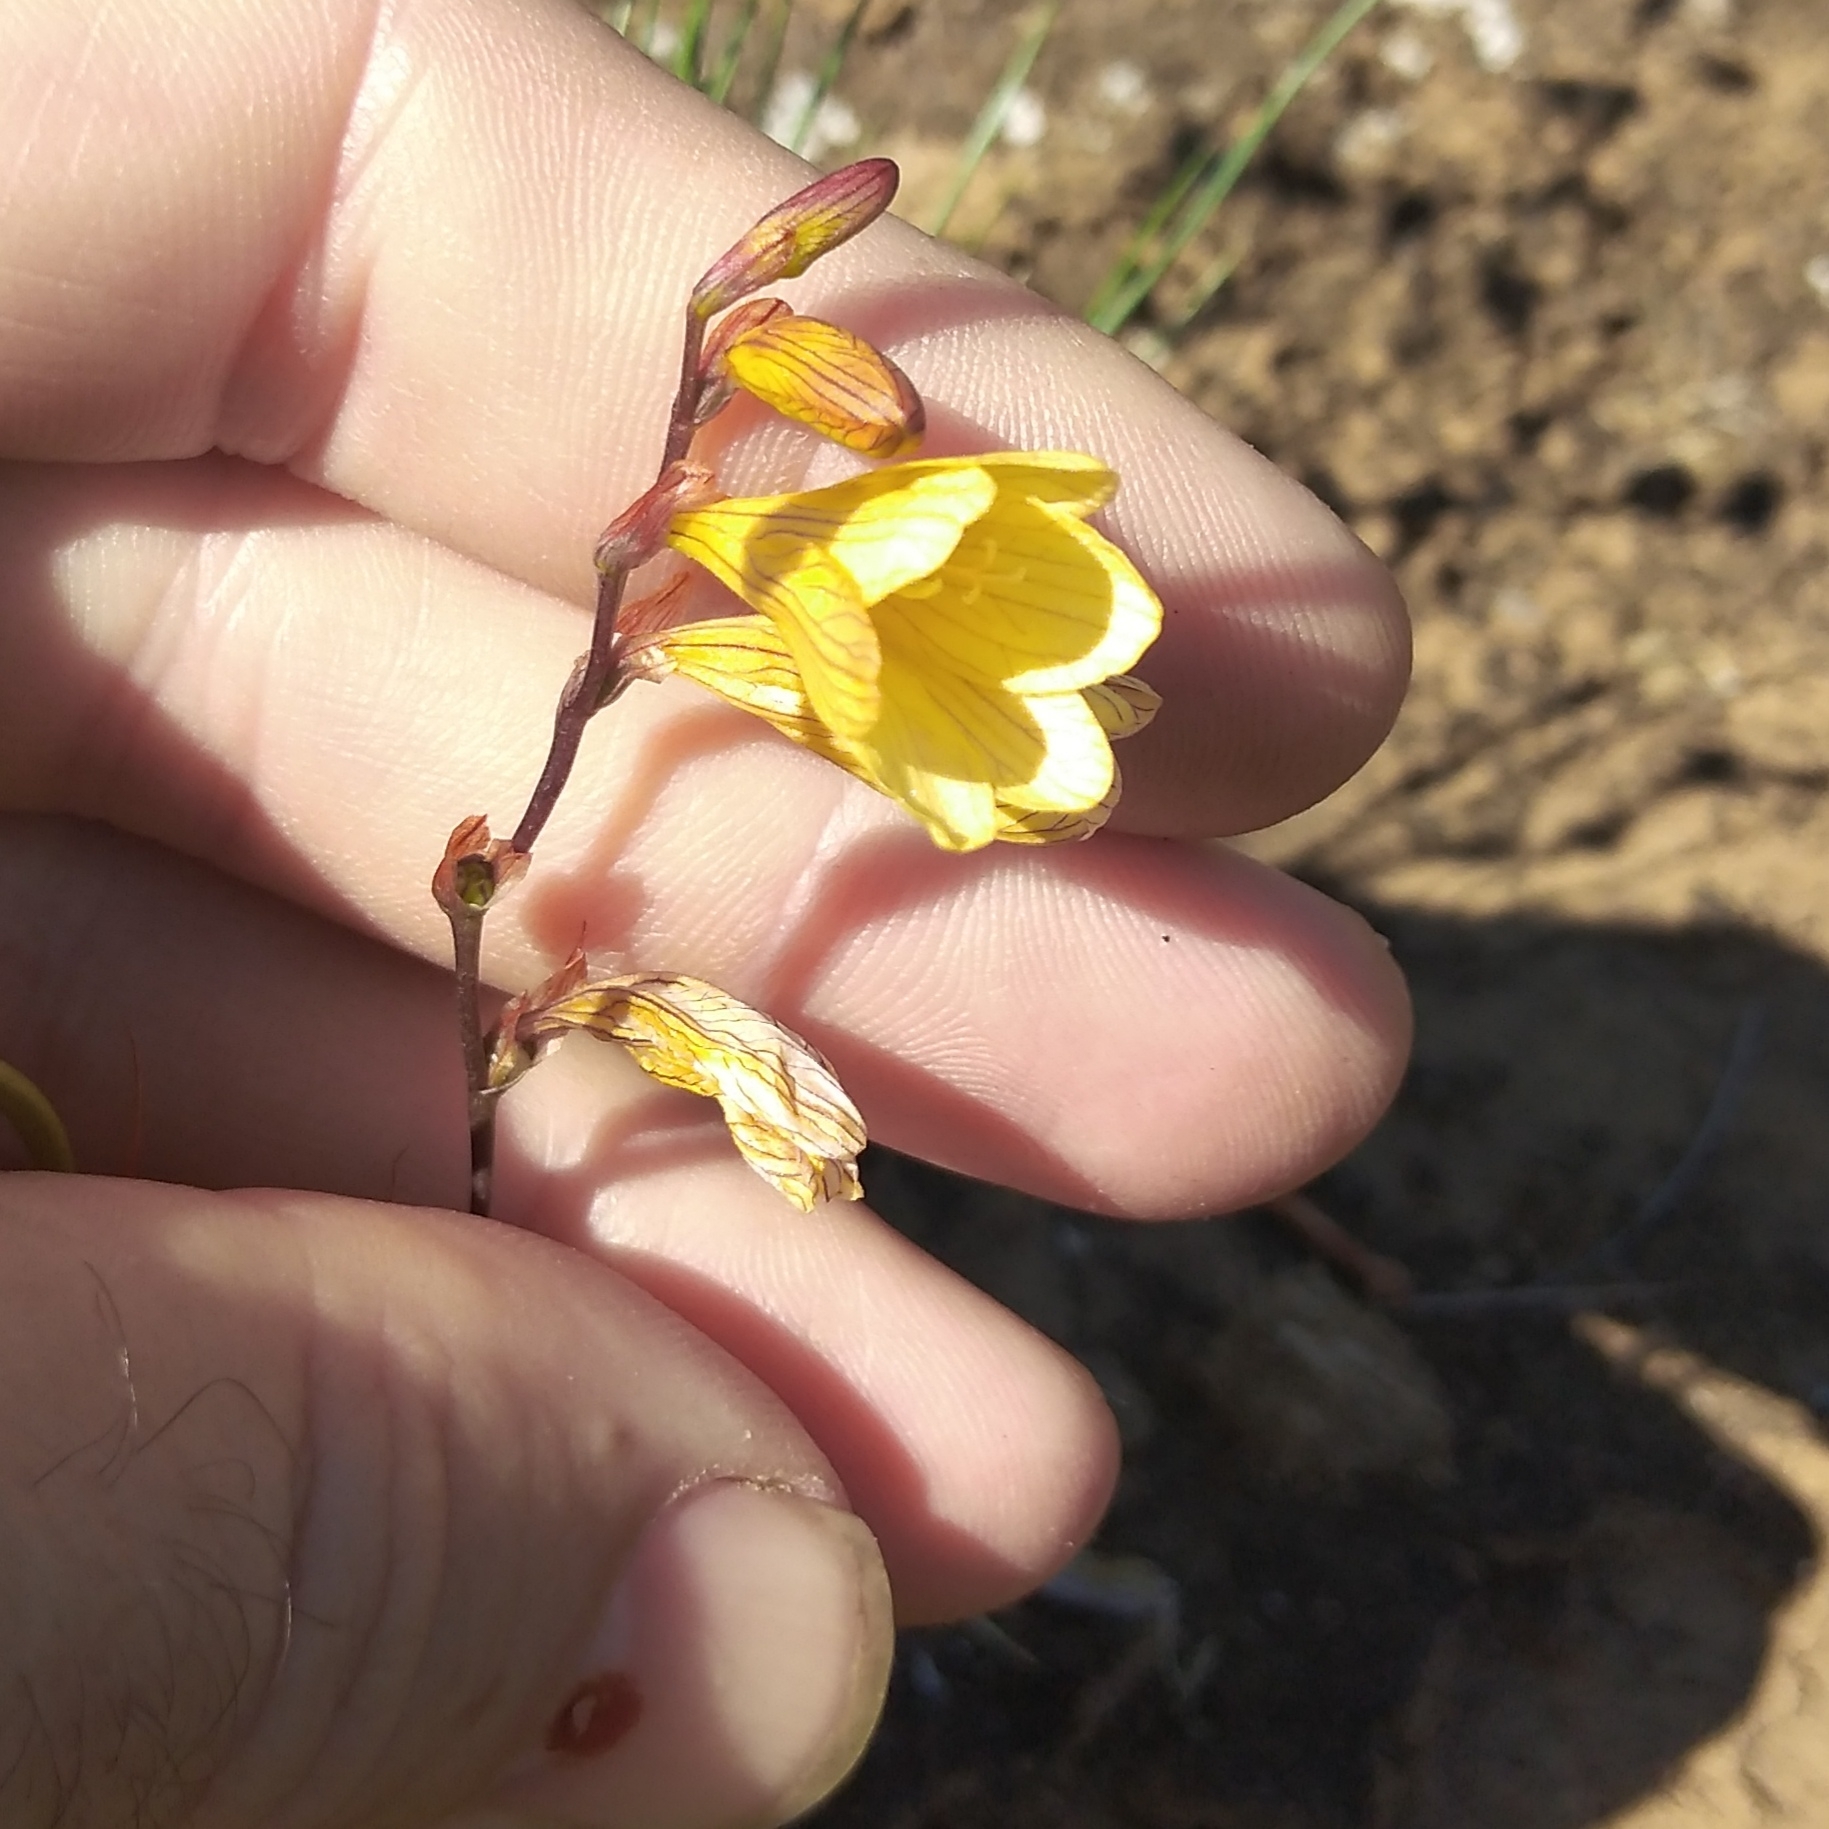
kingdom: Plantae
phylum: Tracheophyta
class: Liliopsida
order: Asparagales
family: Iridaceae
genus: Tritonia
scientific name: Tritonia gladiolaris
